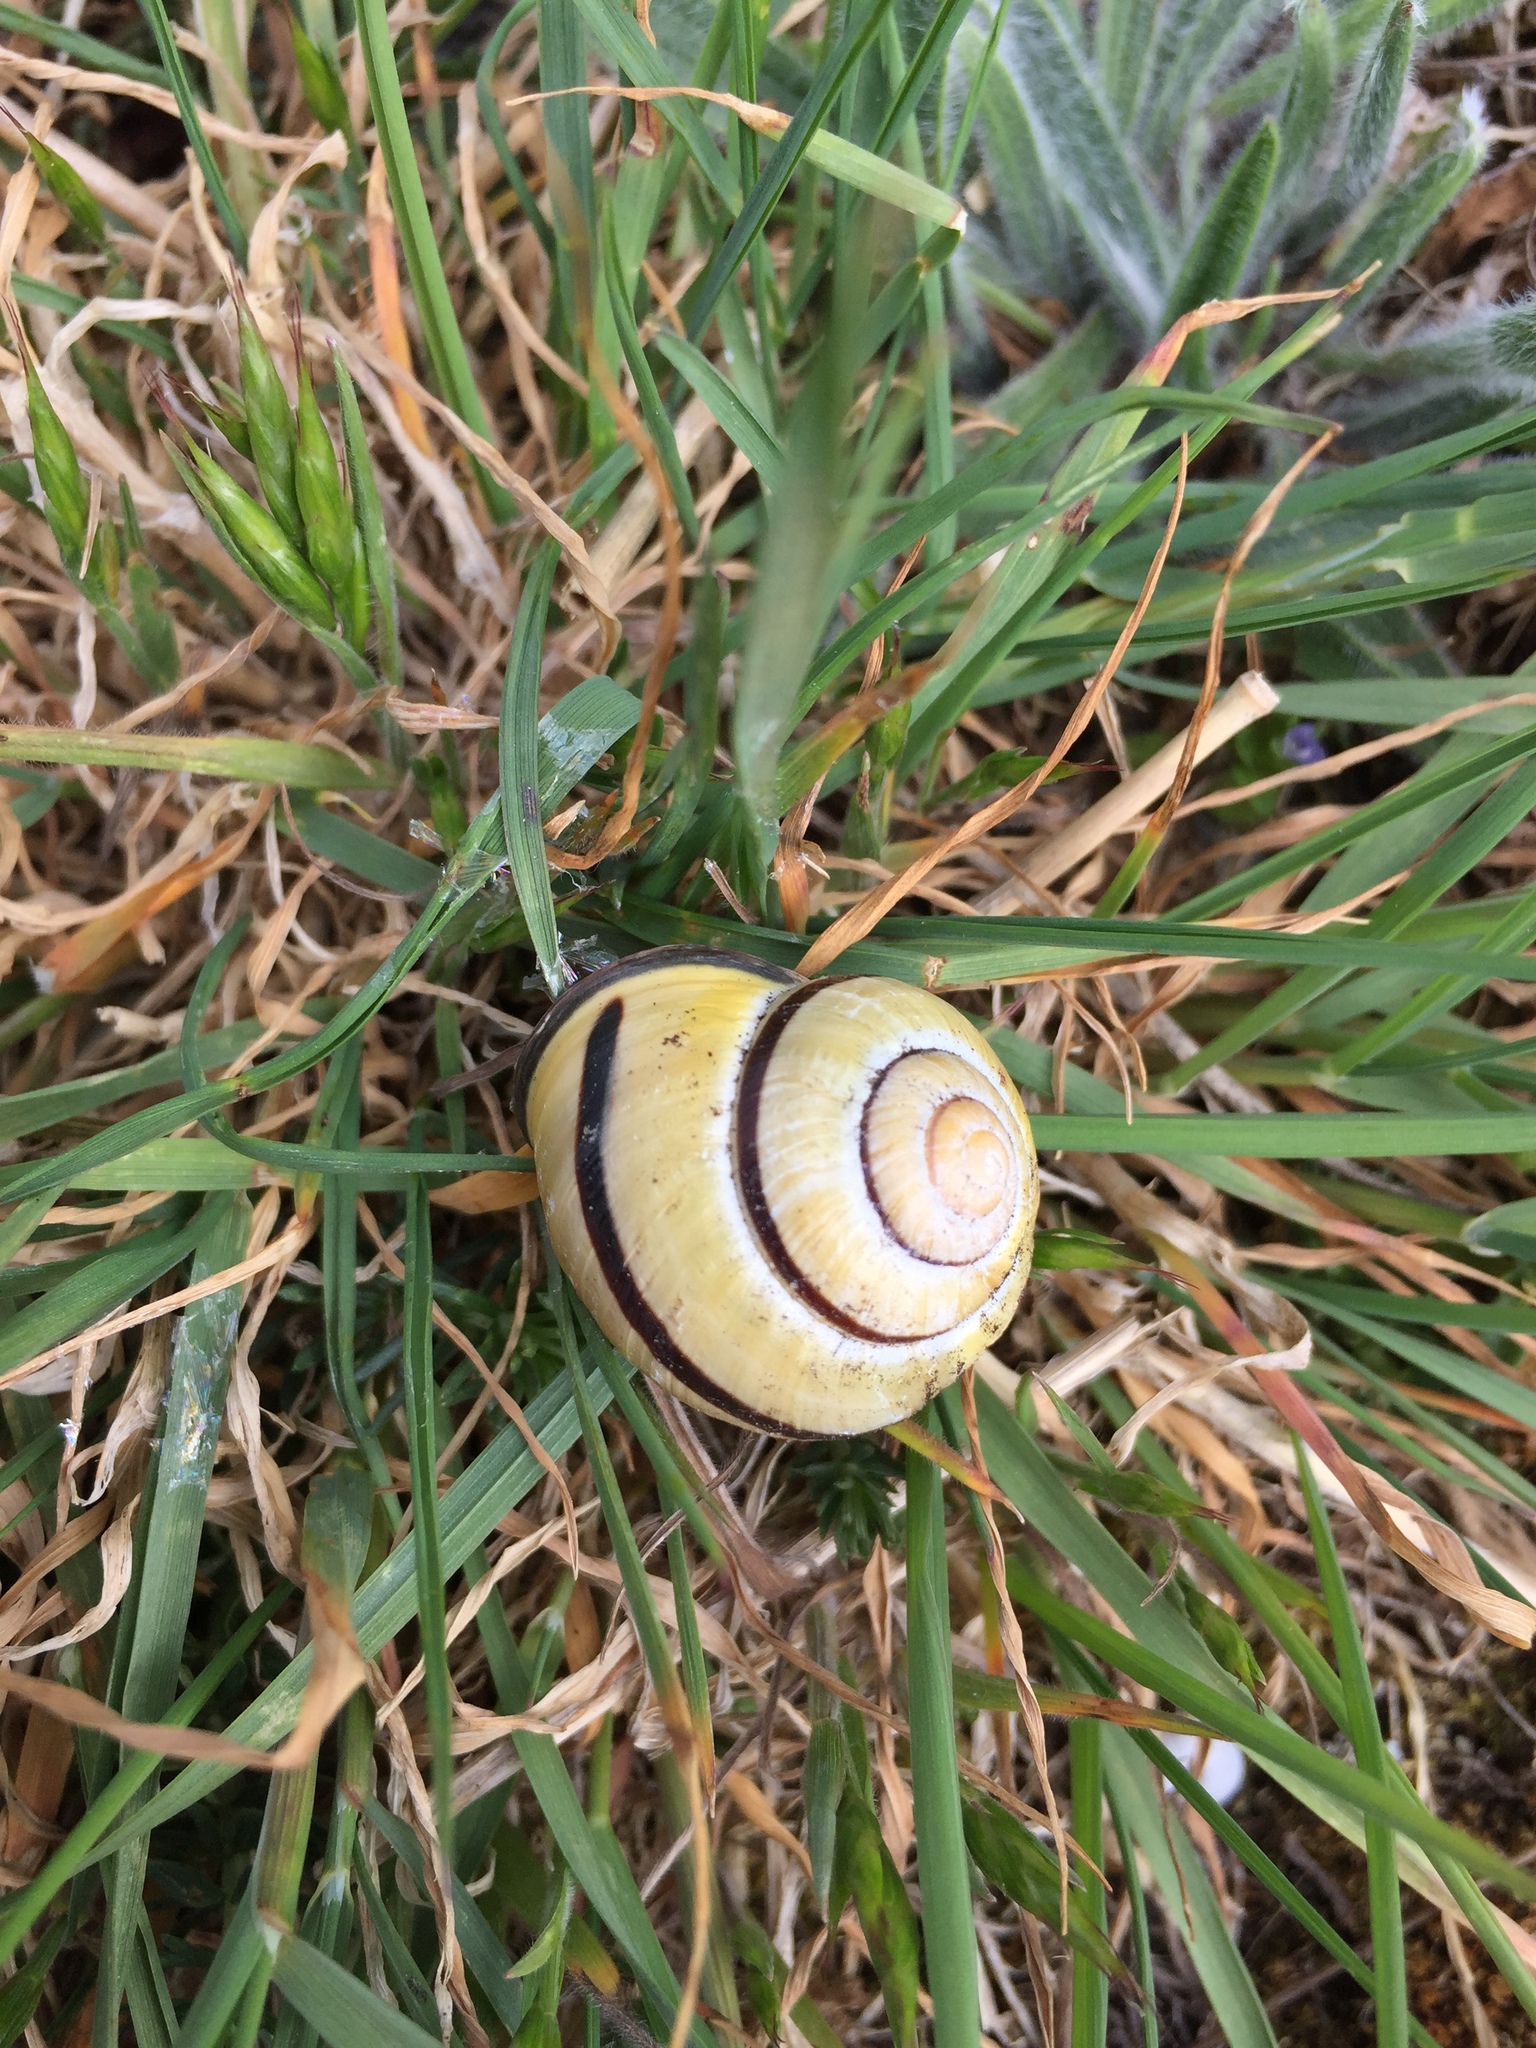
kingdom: Animalia
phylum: Mollusca
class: Gastropoda
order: Stylommatophora
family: Helicidae
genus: Cepaea
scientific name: Cepaea nemoralis
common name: Grovesnail
